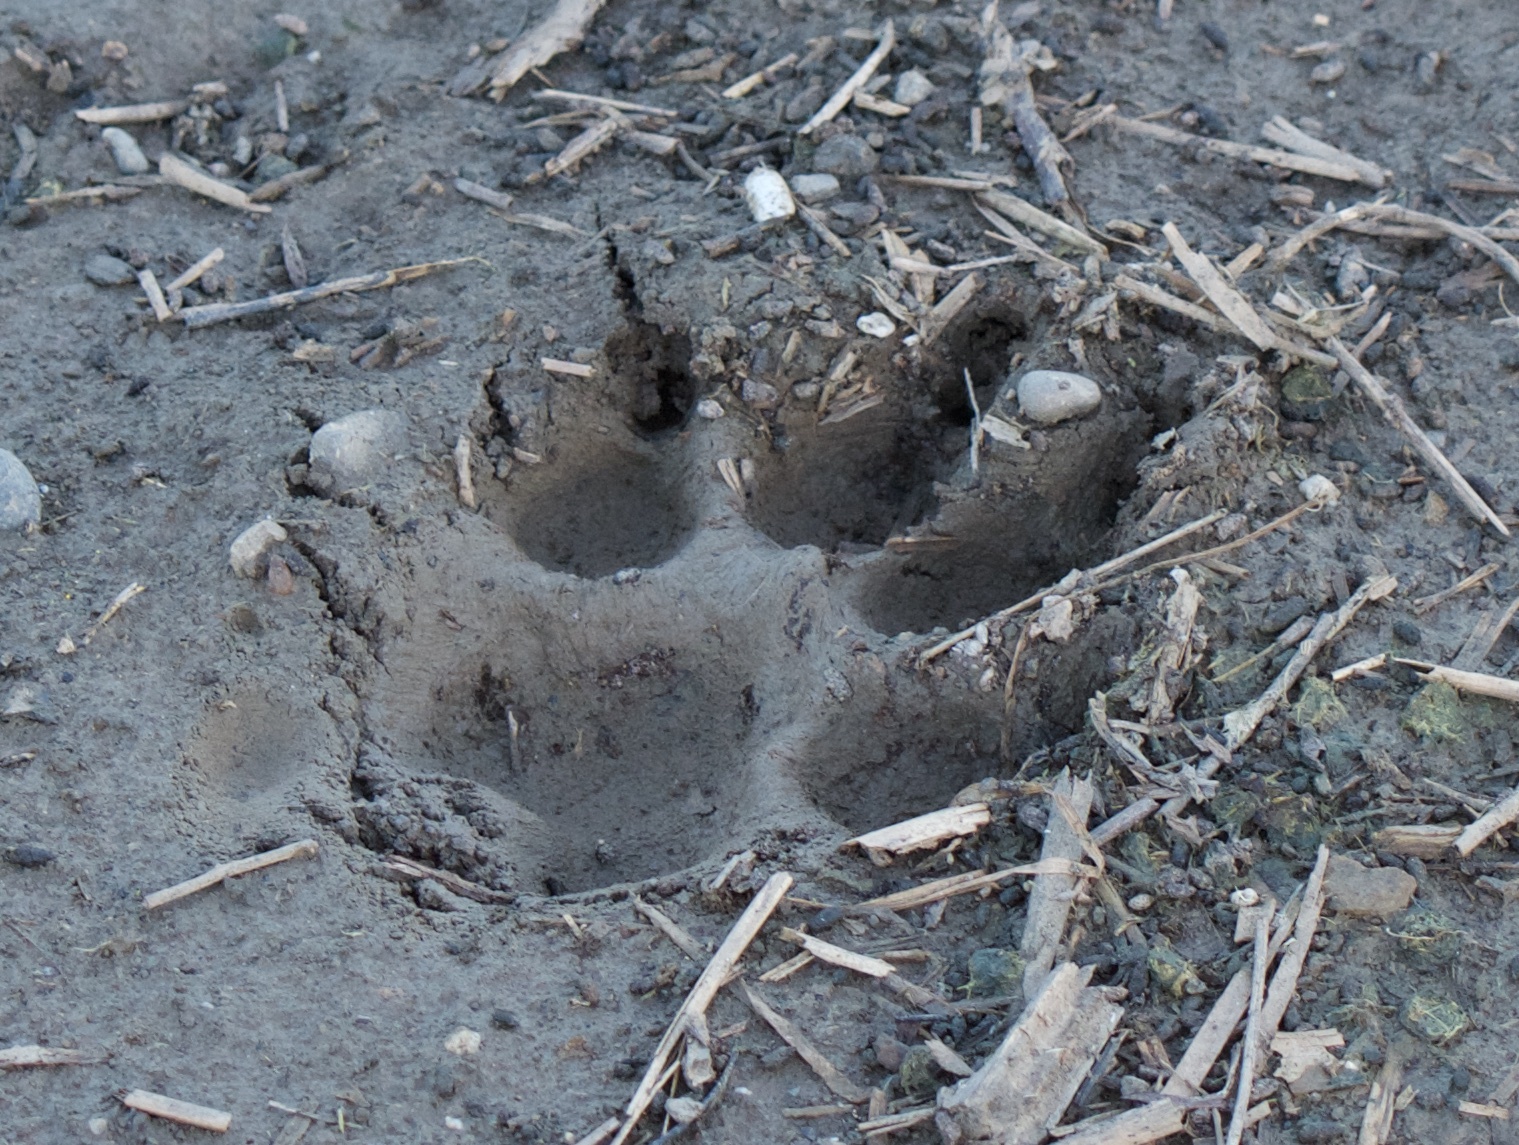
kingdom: Animalia
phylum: Chordata
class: Mammalia
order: Carnivora
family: Canidae
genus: Canis
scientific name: Canis latrans
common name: Coyote
